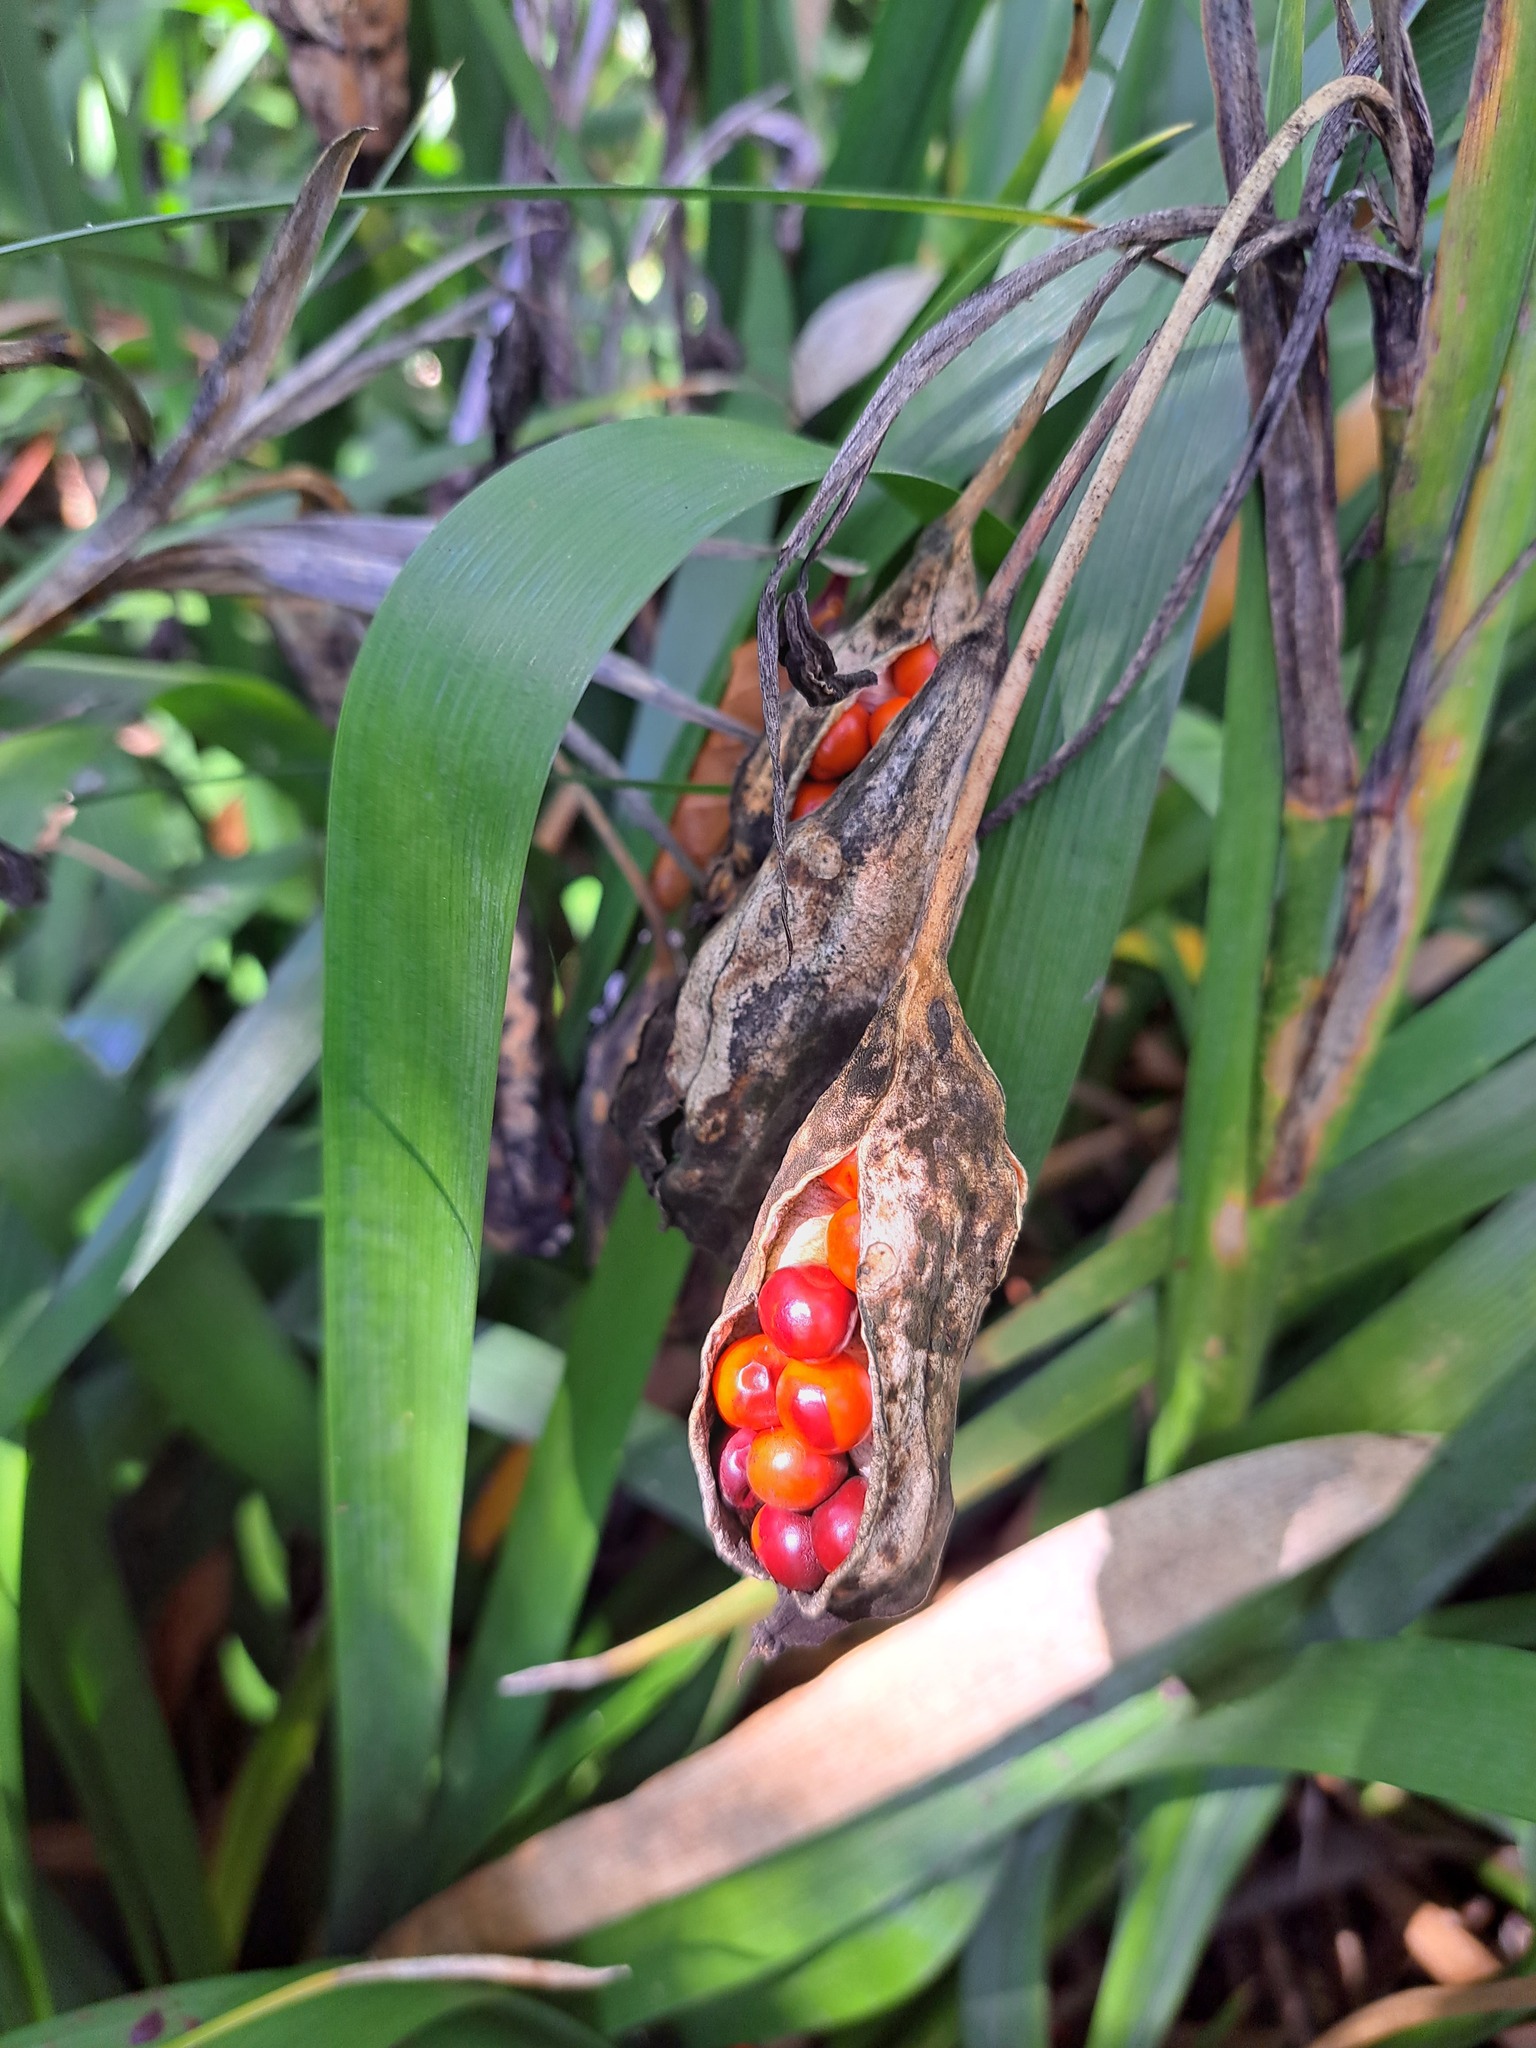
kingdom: Plantae
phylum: Tracheophyta
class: Liliopsida
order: Asparagales
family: Iridaceae
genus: Iris
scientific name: Iris foetidissima
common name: Stinking iris
